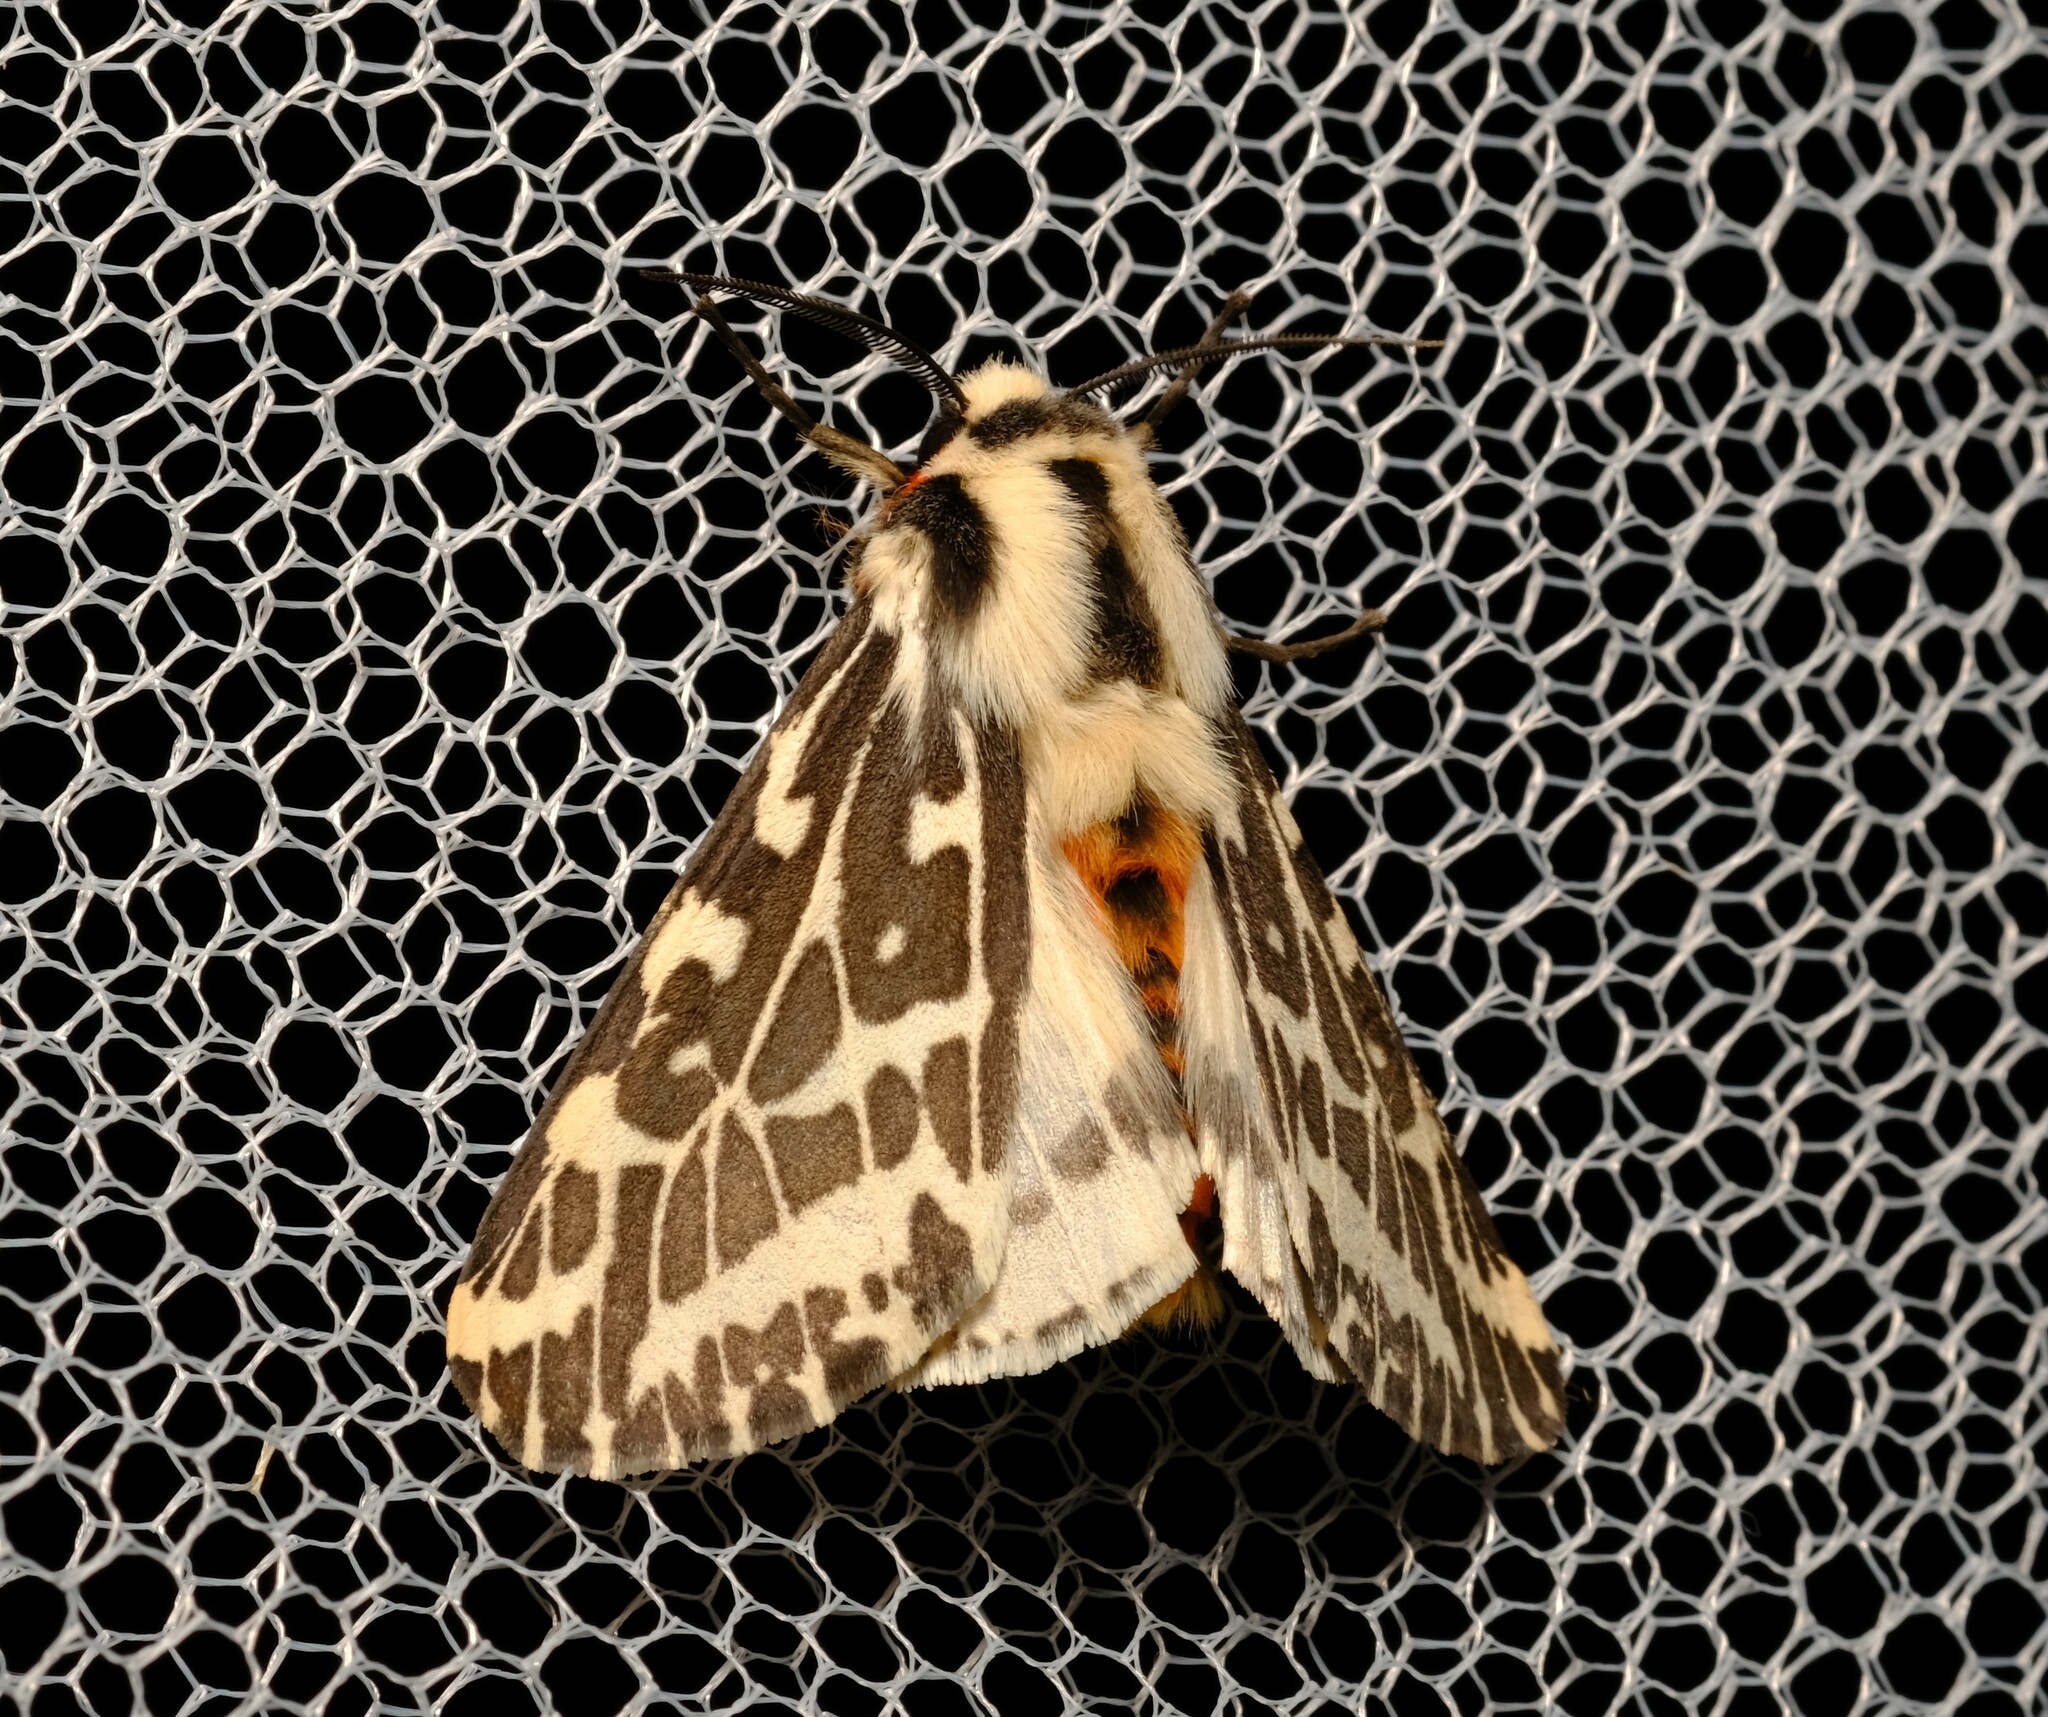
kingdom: Animalia
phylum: Arthropoda
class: Insecta
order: Lepidoptera
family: Erebidae
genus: Ardices
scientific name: Ardices glatignyi
